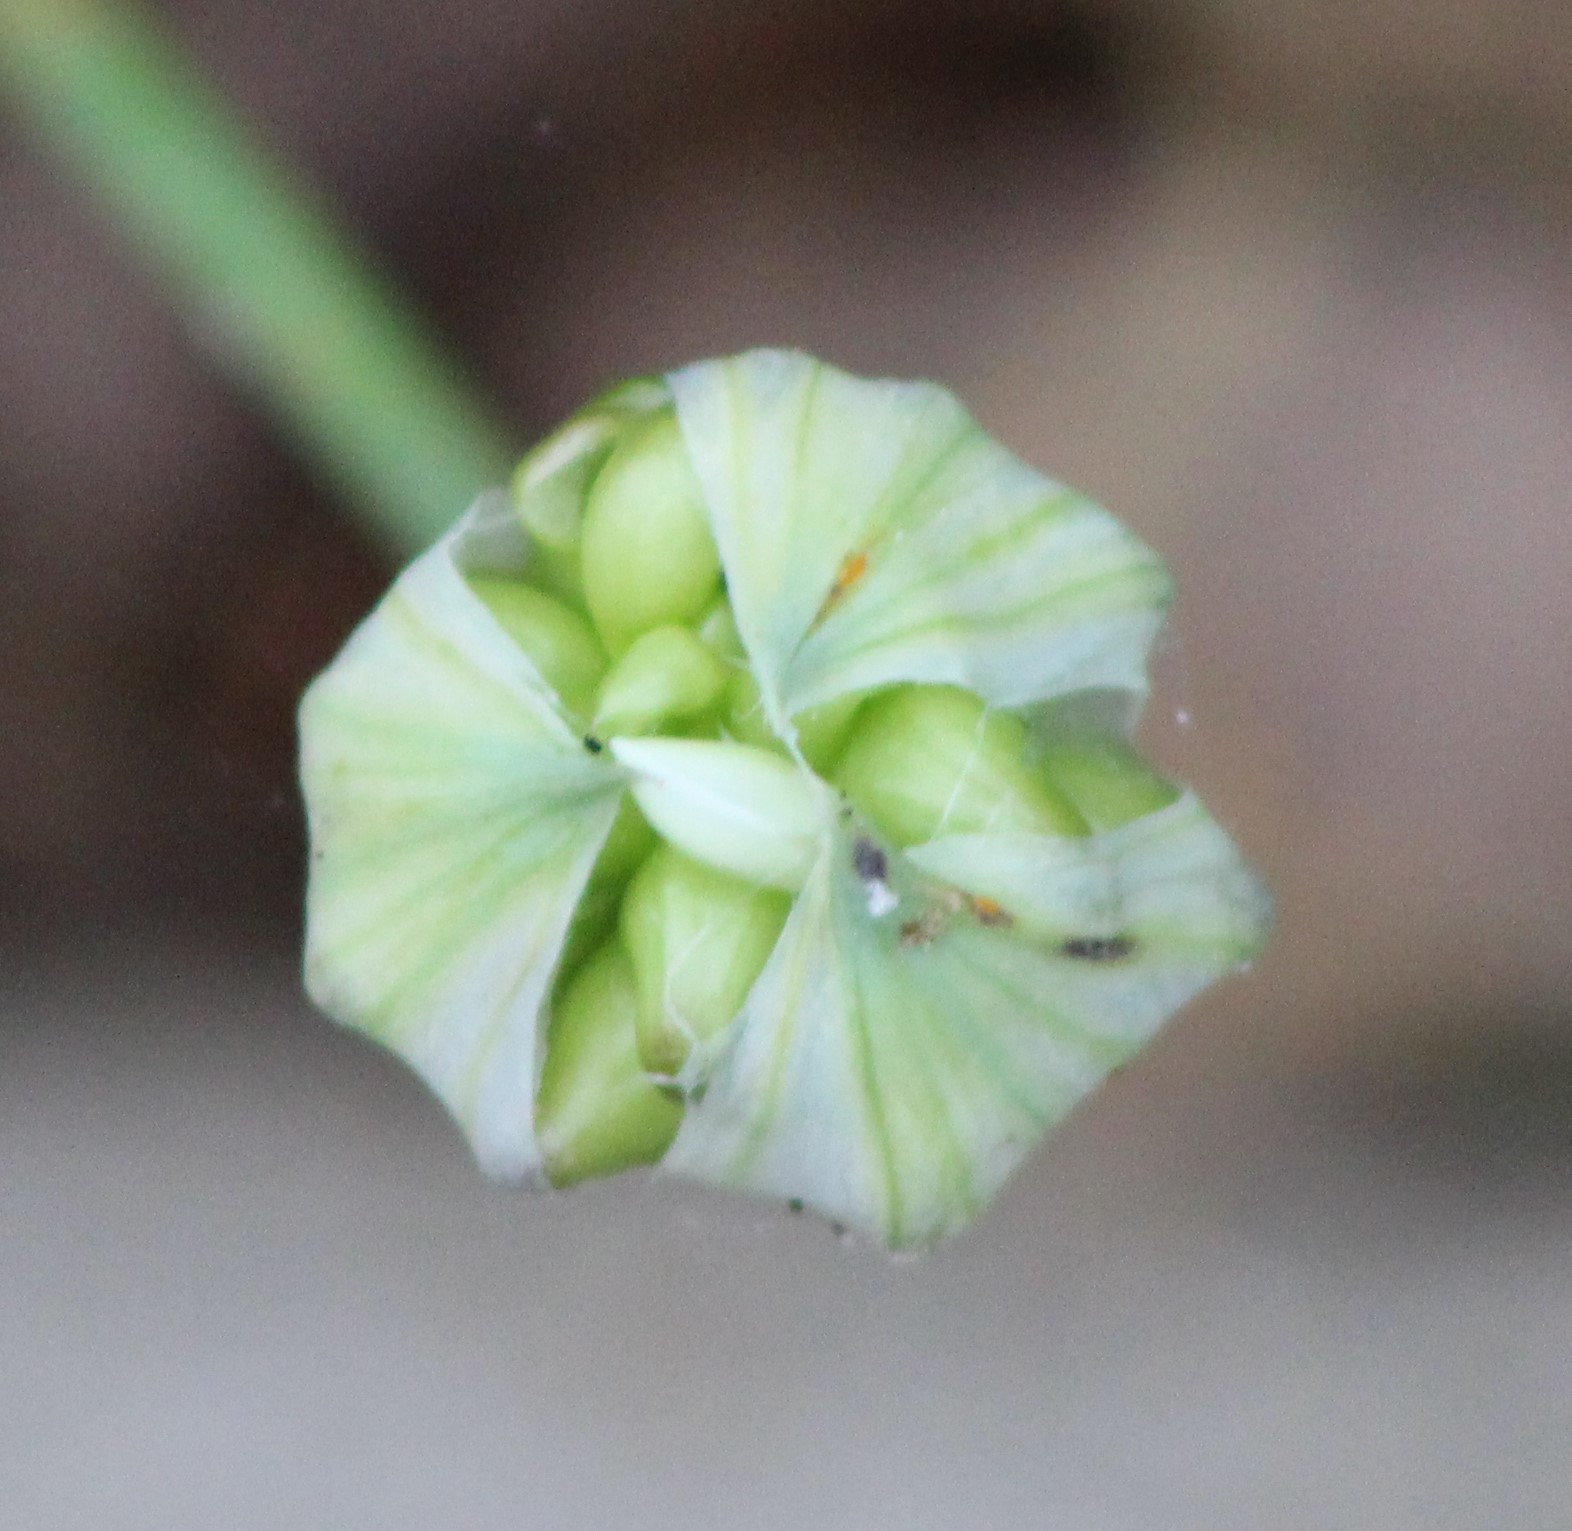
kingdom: Plantae
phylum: Tracheophyta
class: Liliopsida
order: Asparagales
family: Amaryllidaceae
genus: Allium
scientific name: Allium canadense
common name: Meadow garlic
